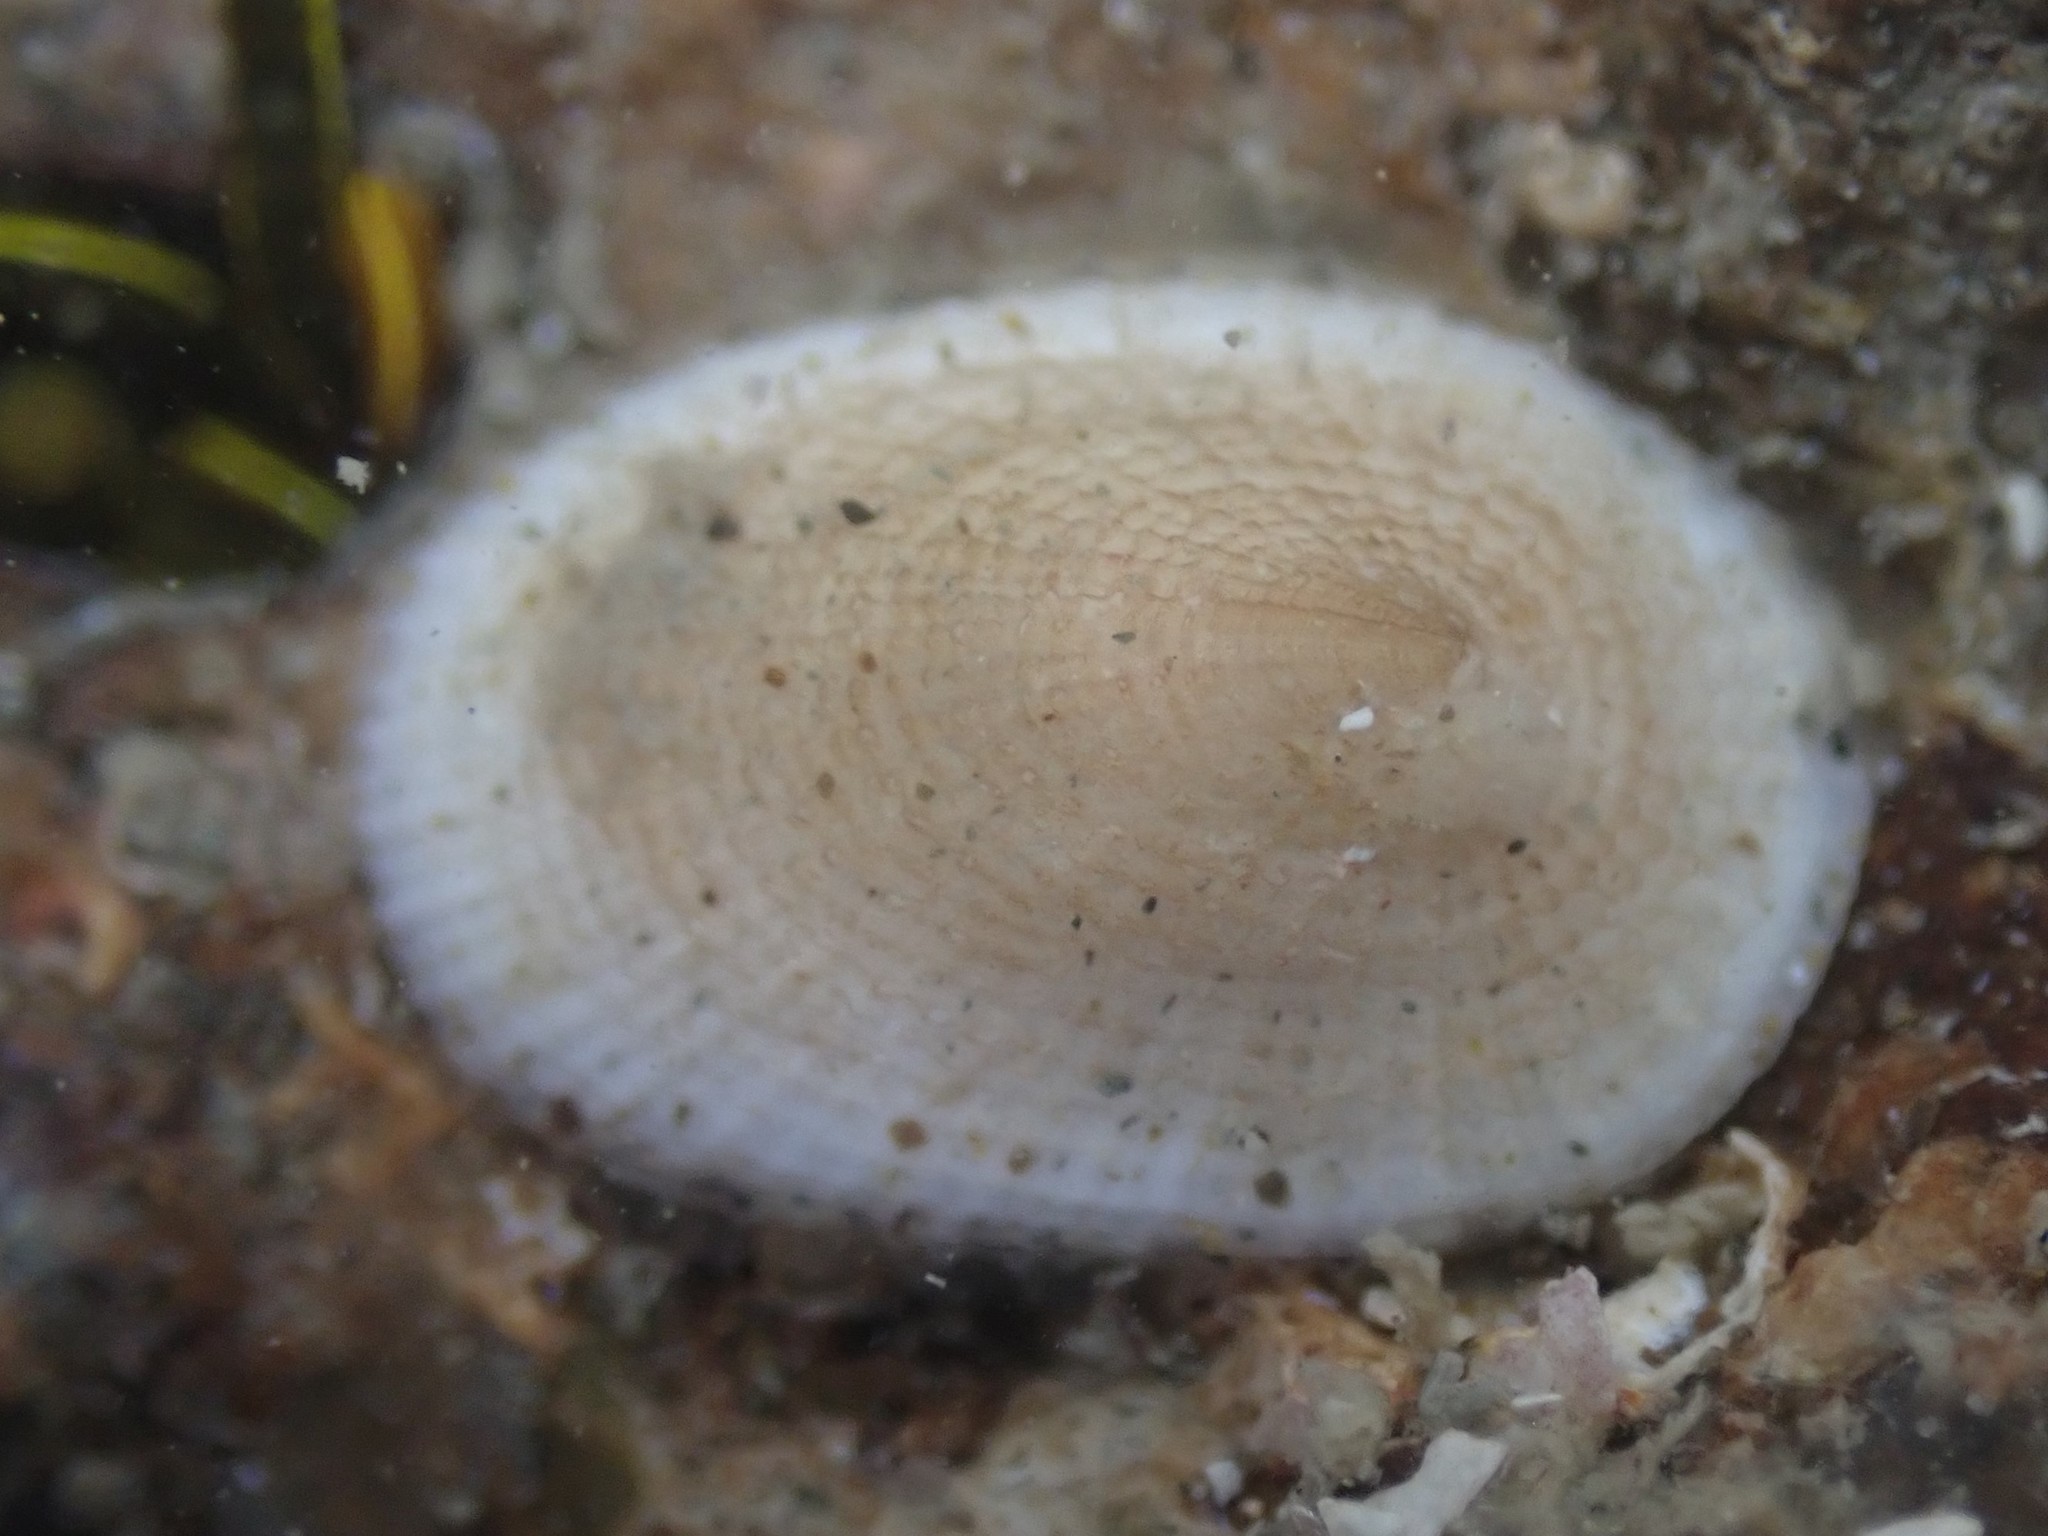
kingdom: Animalia
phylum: Mollusca
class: Gastropoda
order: Lepetellida
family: Fissurellidae
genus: Tugali
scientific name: Tugali suteri
